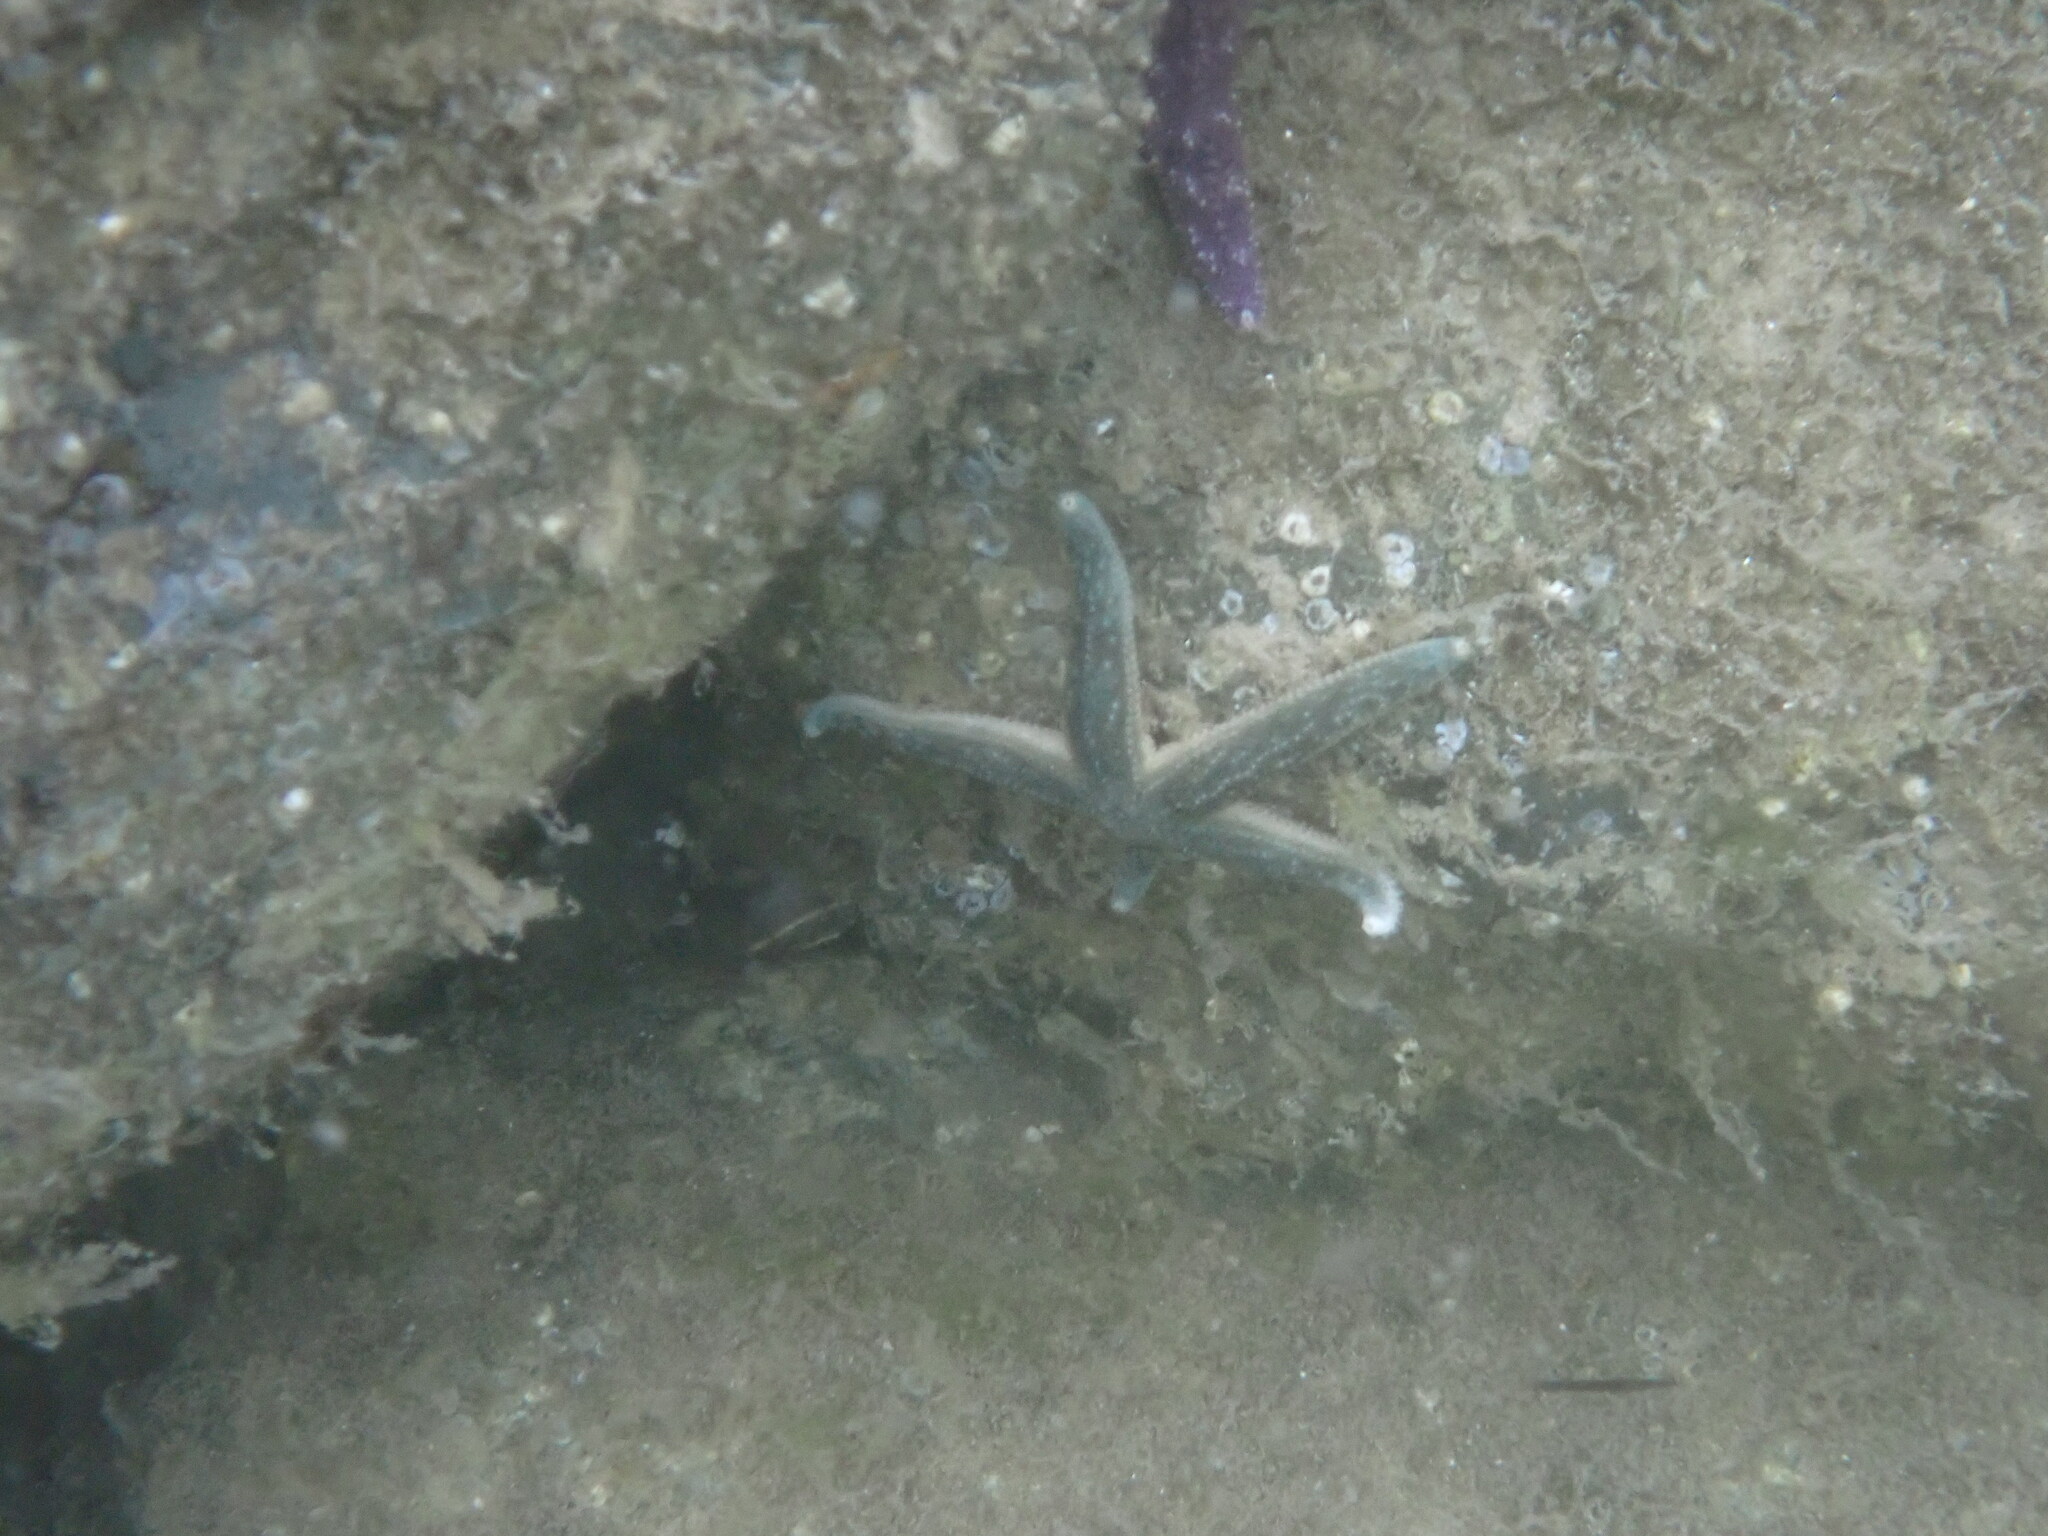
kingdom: Animalia
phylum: Echinodermata
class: Asteroidea
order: Forcipulatida
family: Asteriidae
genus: Evasterias
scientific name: Evasterias troschelii
